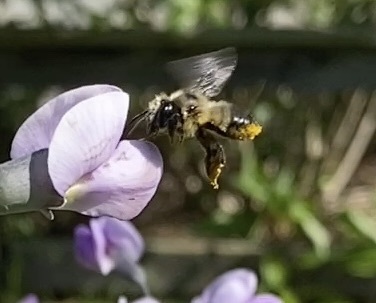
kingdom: Animalia
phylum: Arthropoda
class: Insecta
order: Hymenoptera
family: Megachilidae
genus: Megachile
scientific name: Megachile melanophaea
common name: Black-and-gray leafcutter bee
